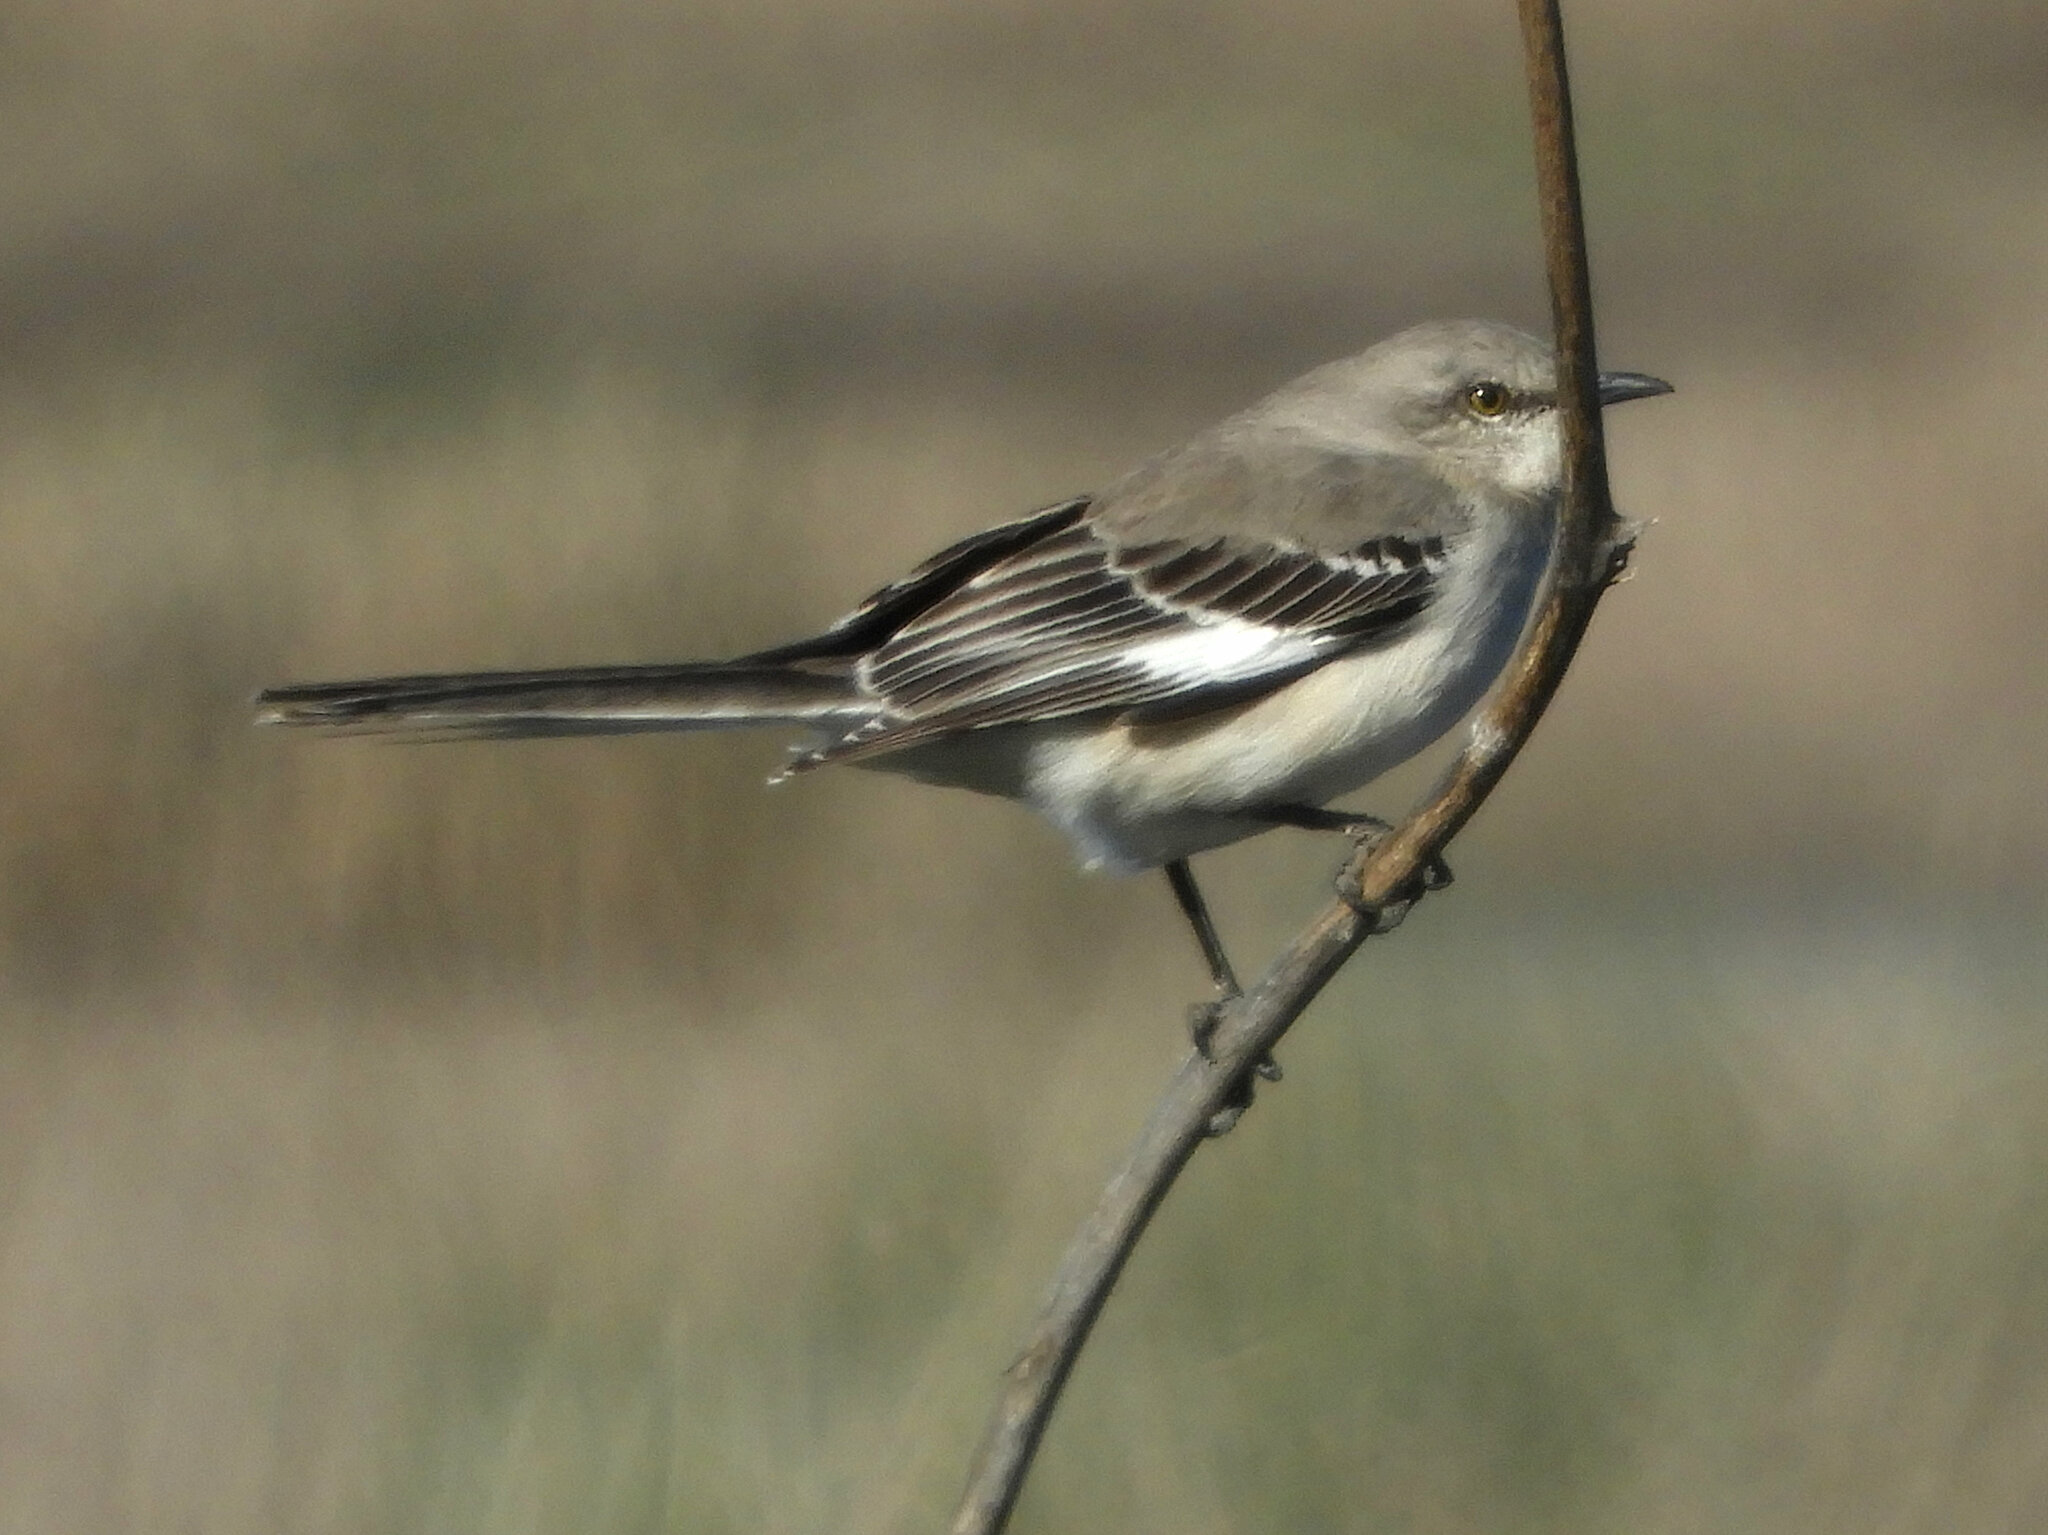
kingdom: Animalia
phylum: Chordata
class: Aves
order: Passeriformes
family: Mimidae
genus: Mimus
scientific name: Mimus polyglottos
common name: Northern mockingbird
